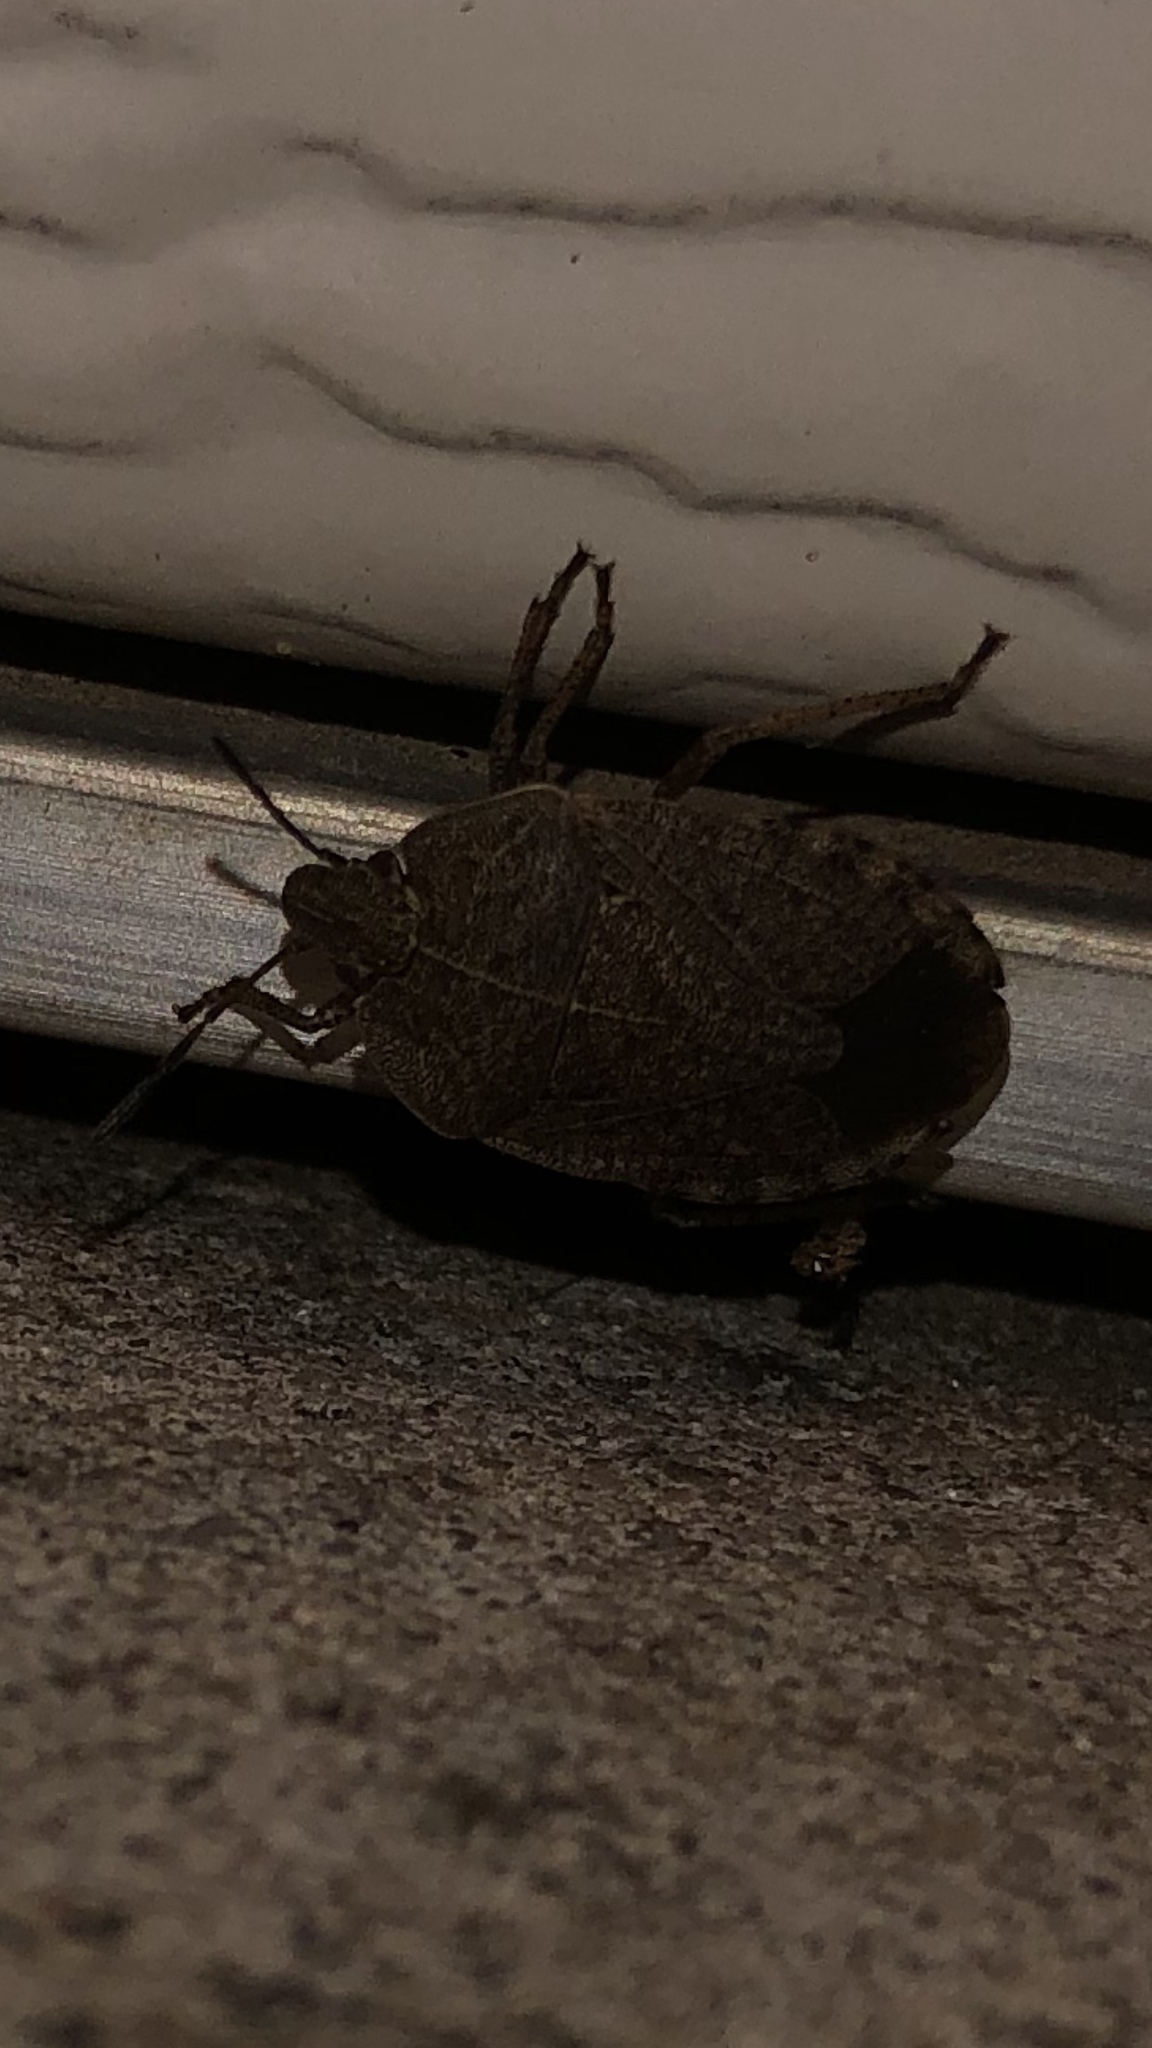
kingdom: Animalia
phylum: Arthropoda
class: Insecta
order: Hemiptera
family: Pentatomidae
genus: Menecles
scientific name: Menecles insertus
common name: Elf shoe stink bug
